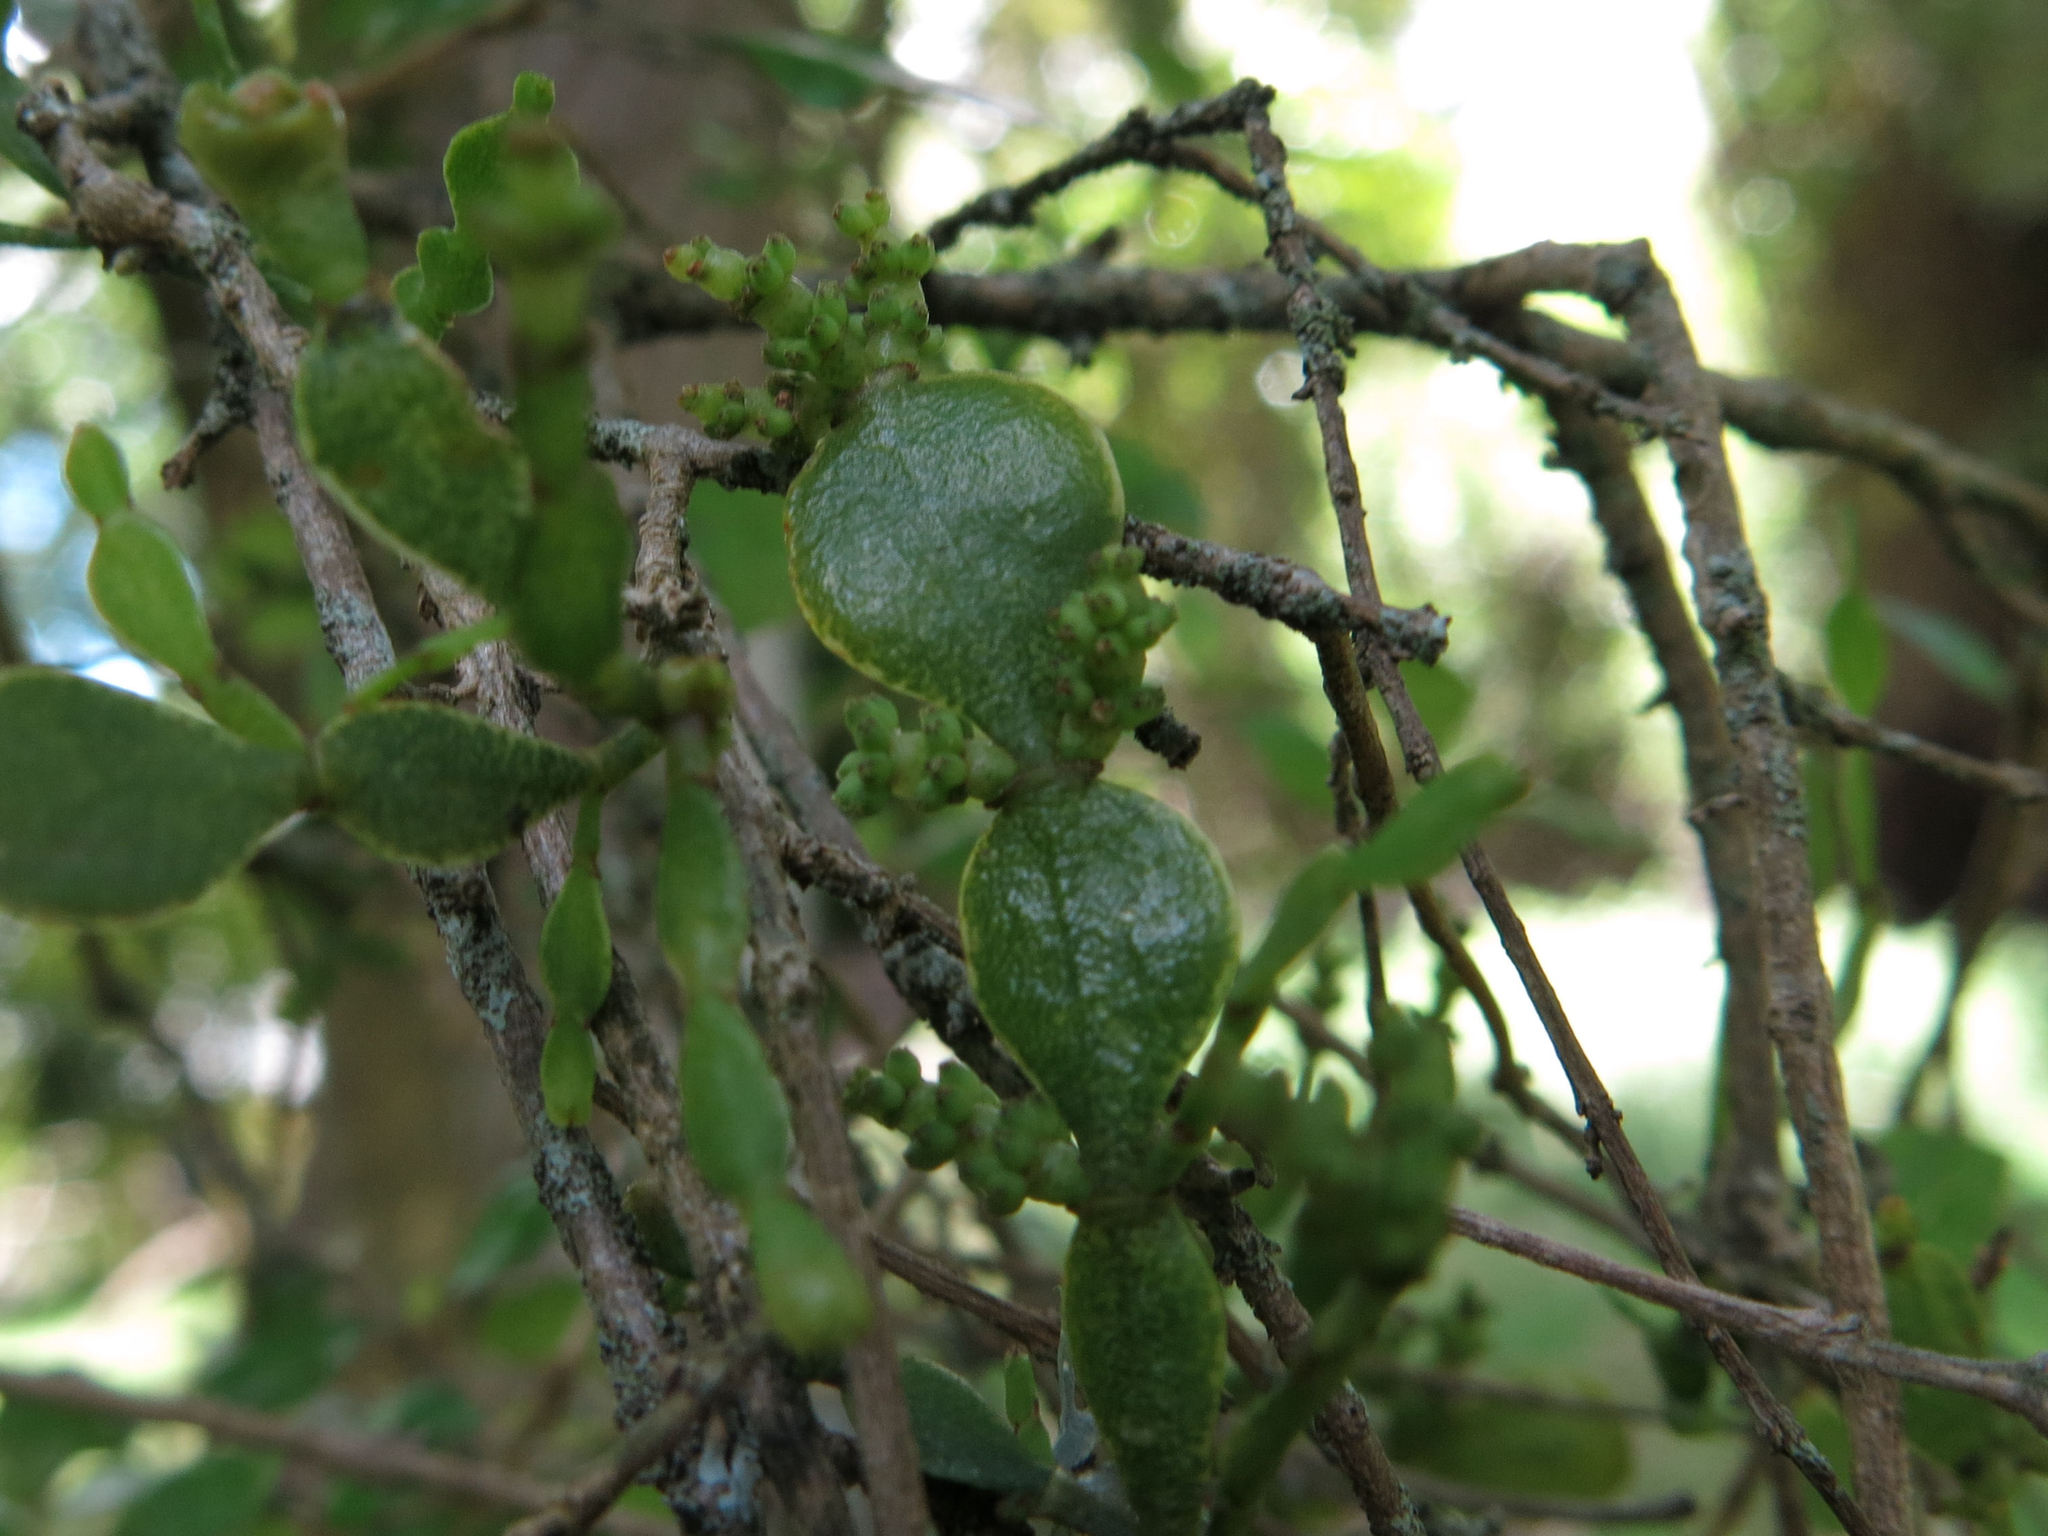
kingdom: Plantae
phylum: Tracheophyta
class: Magnoliopsida
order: Santalales
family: Viscaceae
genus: Korthalsella
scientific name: Korthalsella lindsayi
